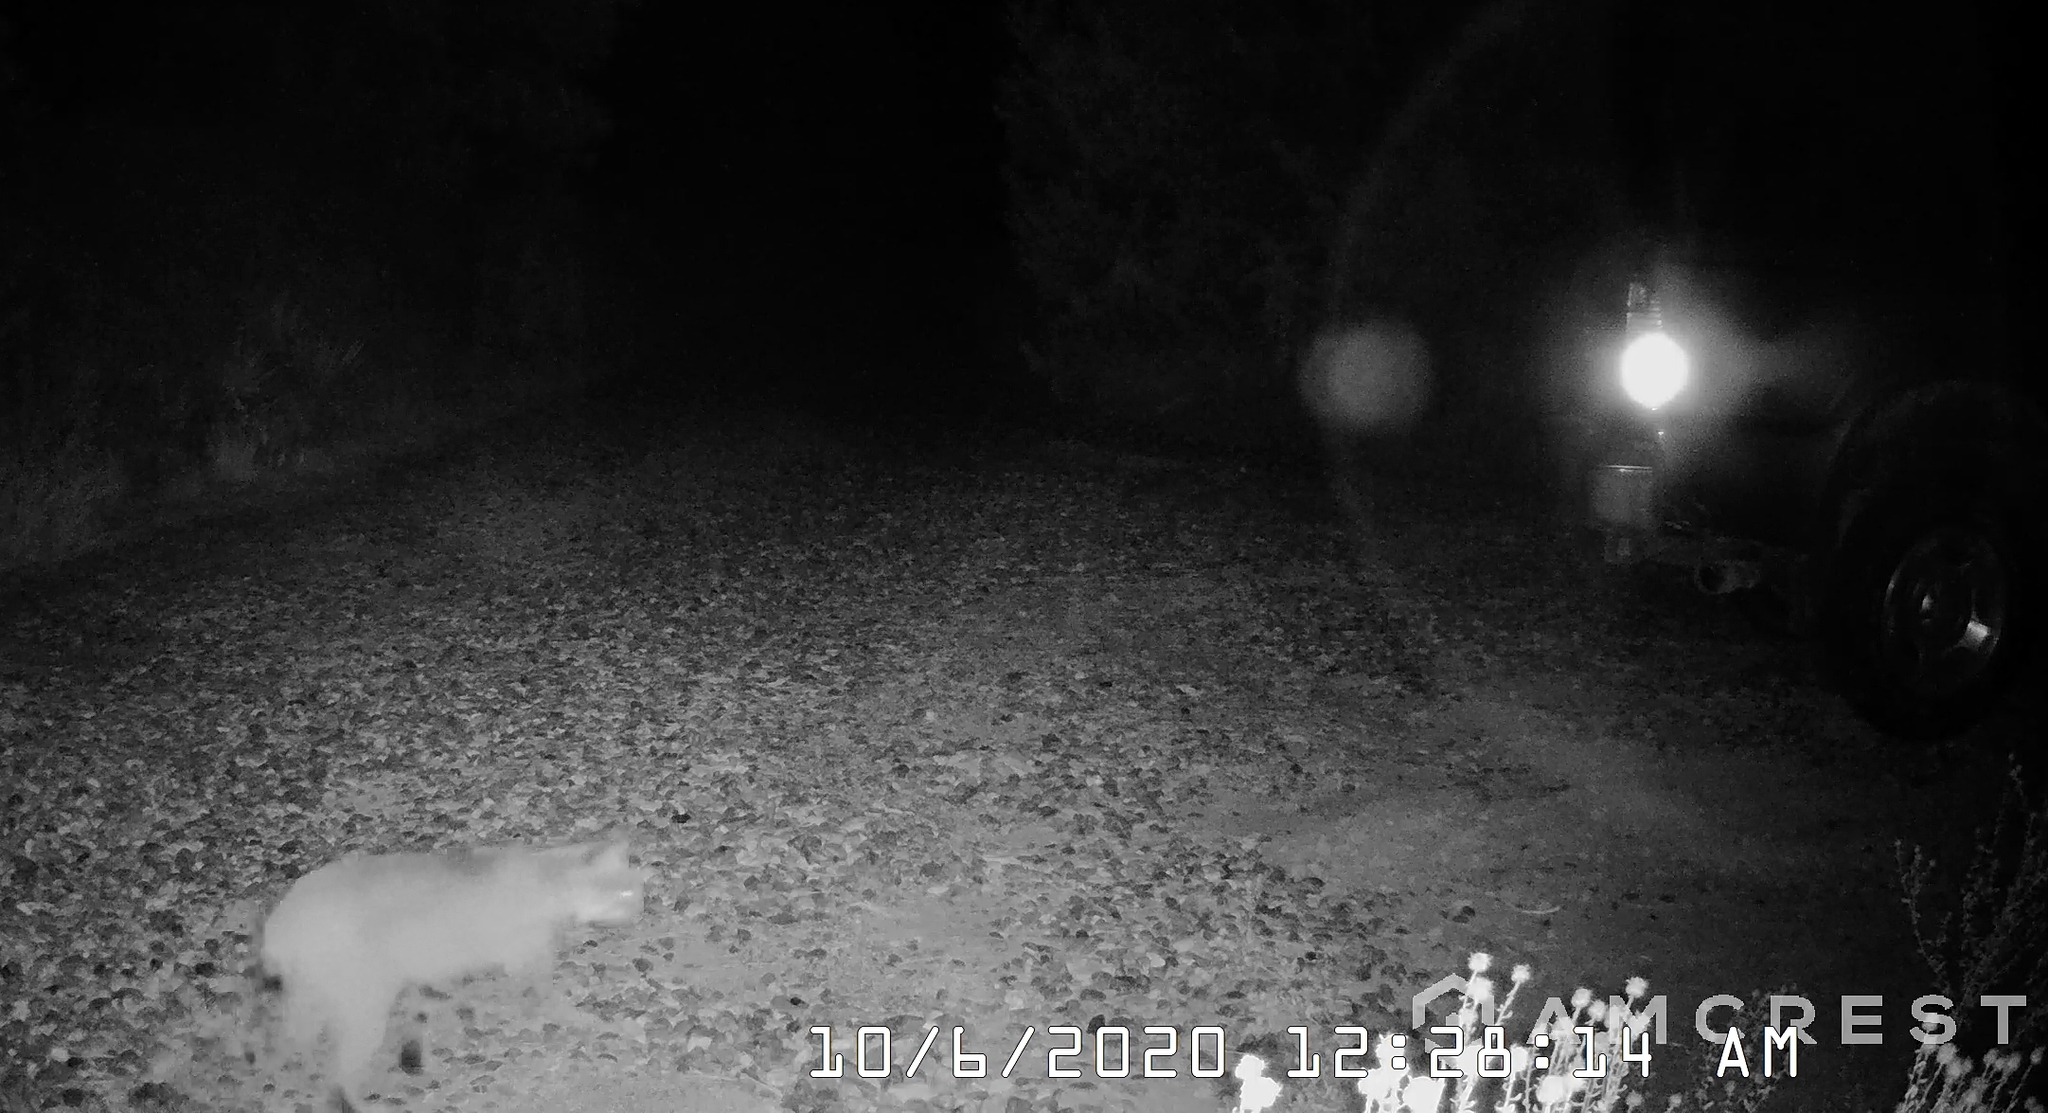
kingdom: Animalia
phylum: Chordata
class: Mammalia
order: Carnivora
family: Felidae
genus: Lynx
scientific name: Lynx rufus
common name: Bobcat
